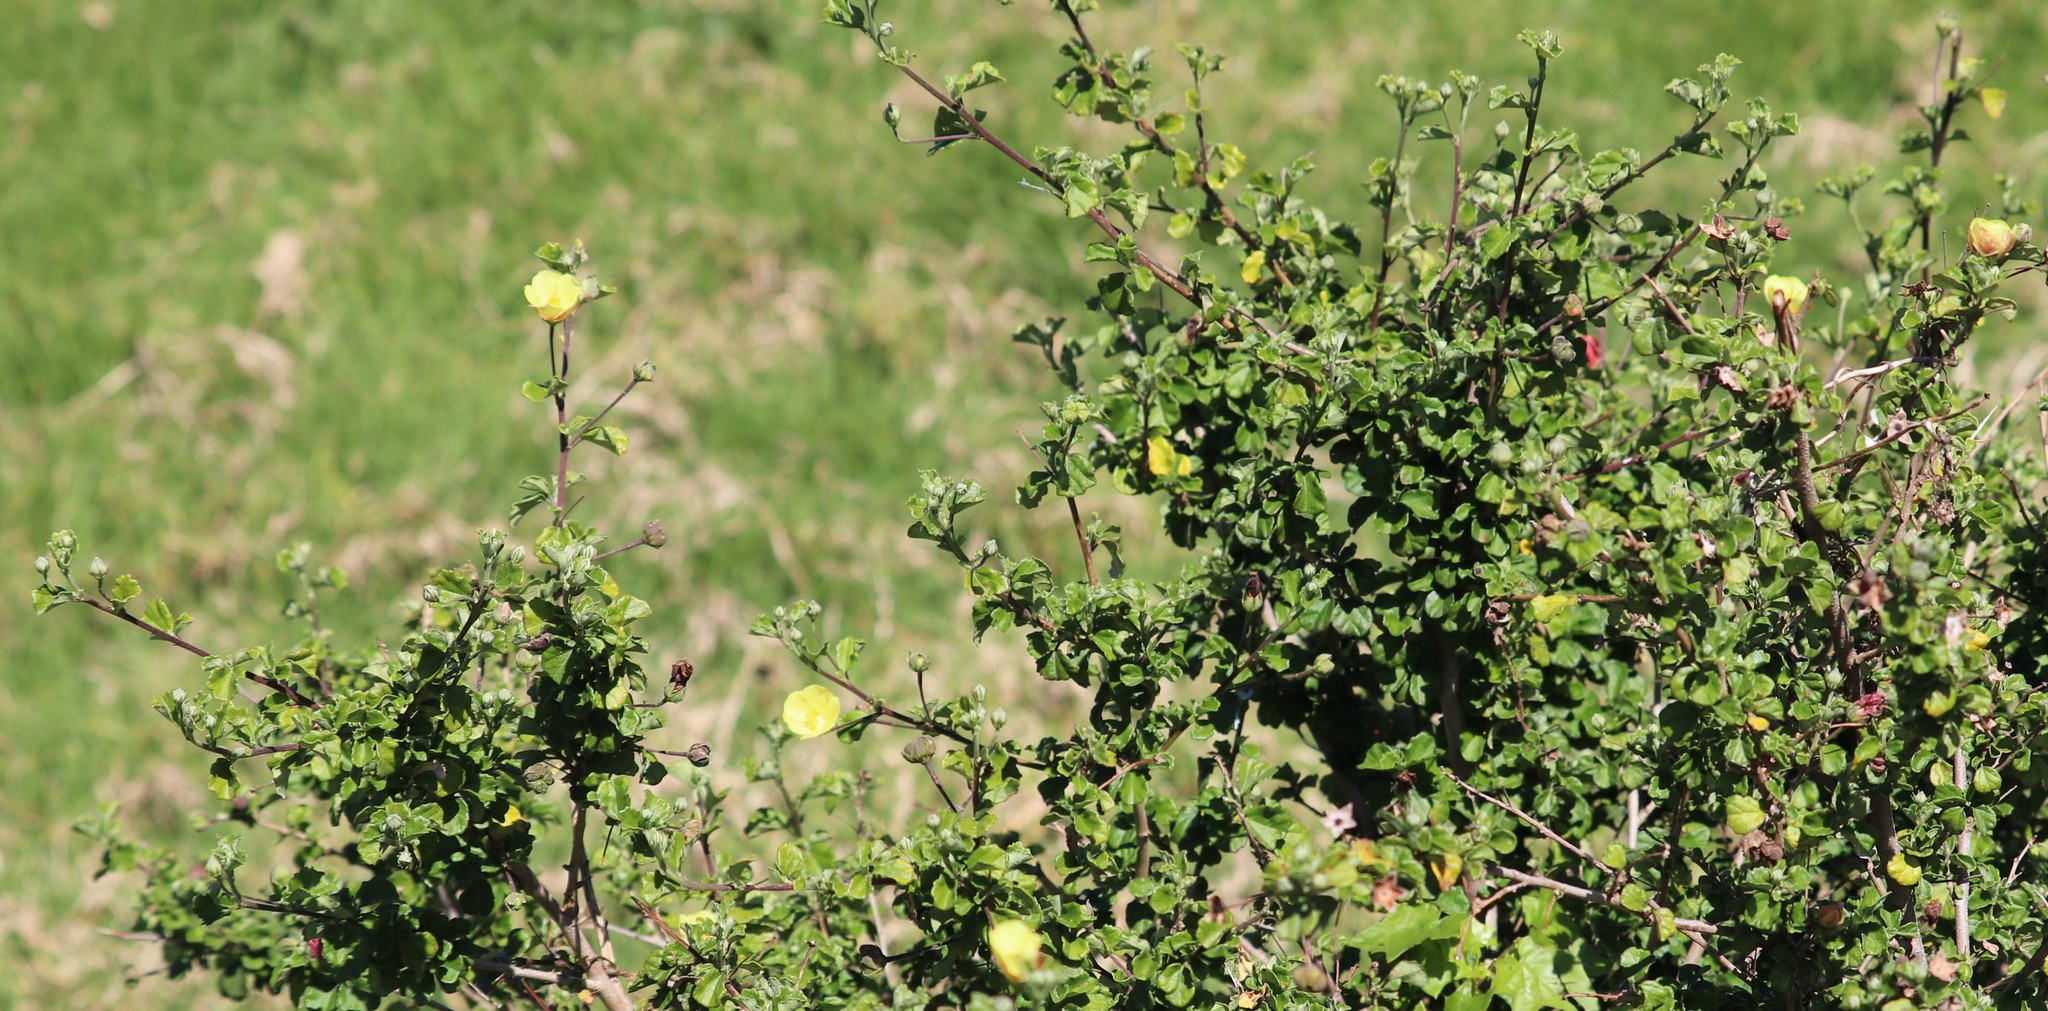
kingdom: Plantae
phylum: Tracheophyta
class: Magnoliopsida
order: Malvales
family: Malvaceae
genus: Pavonia
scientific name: Pavonia praemorsa
